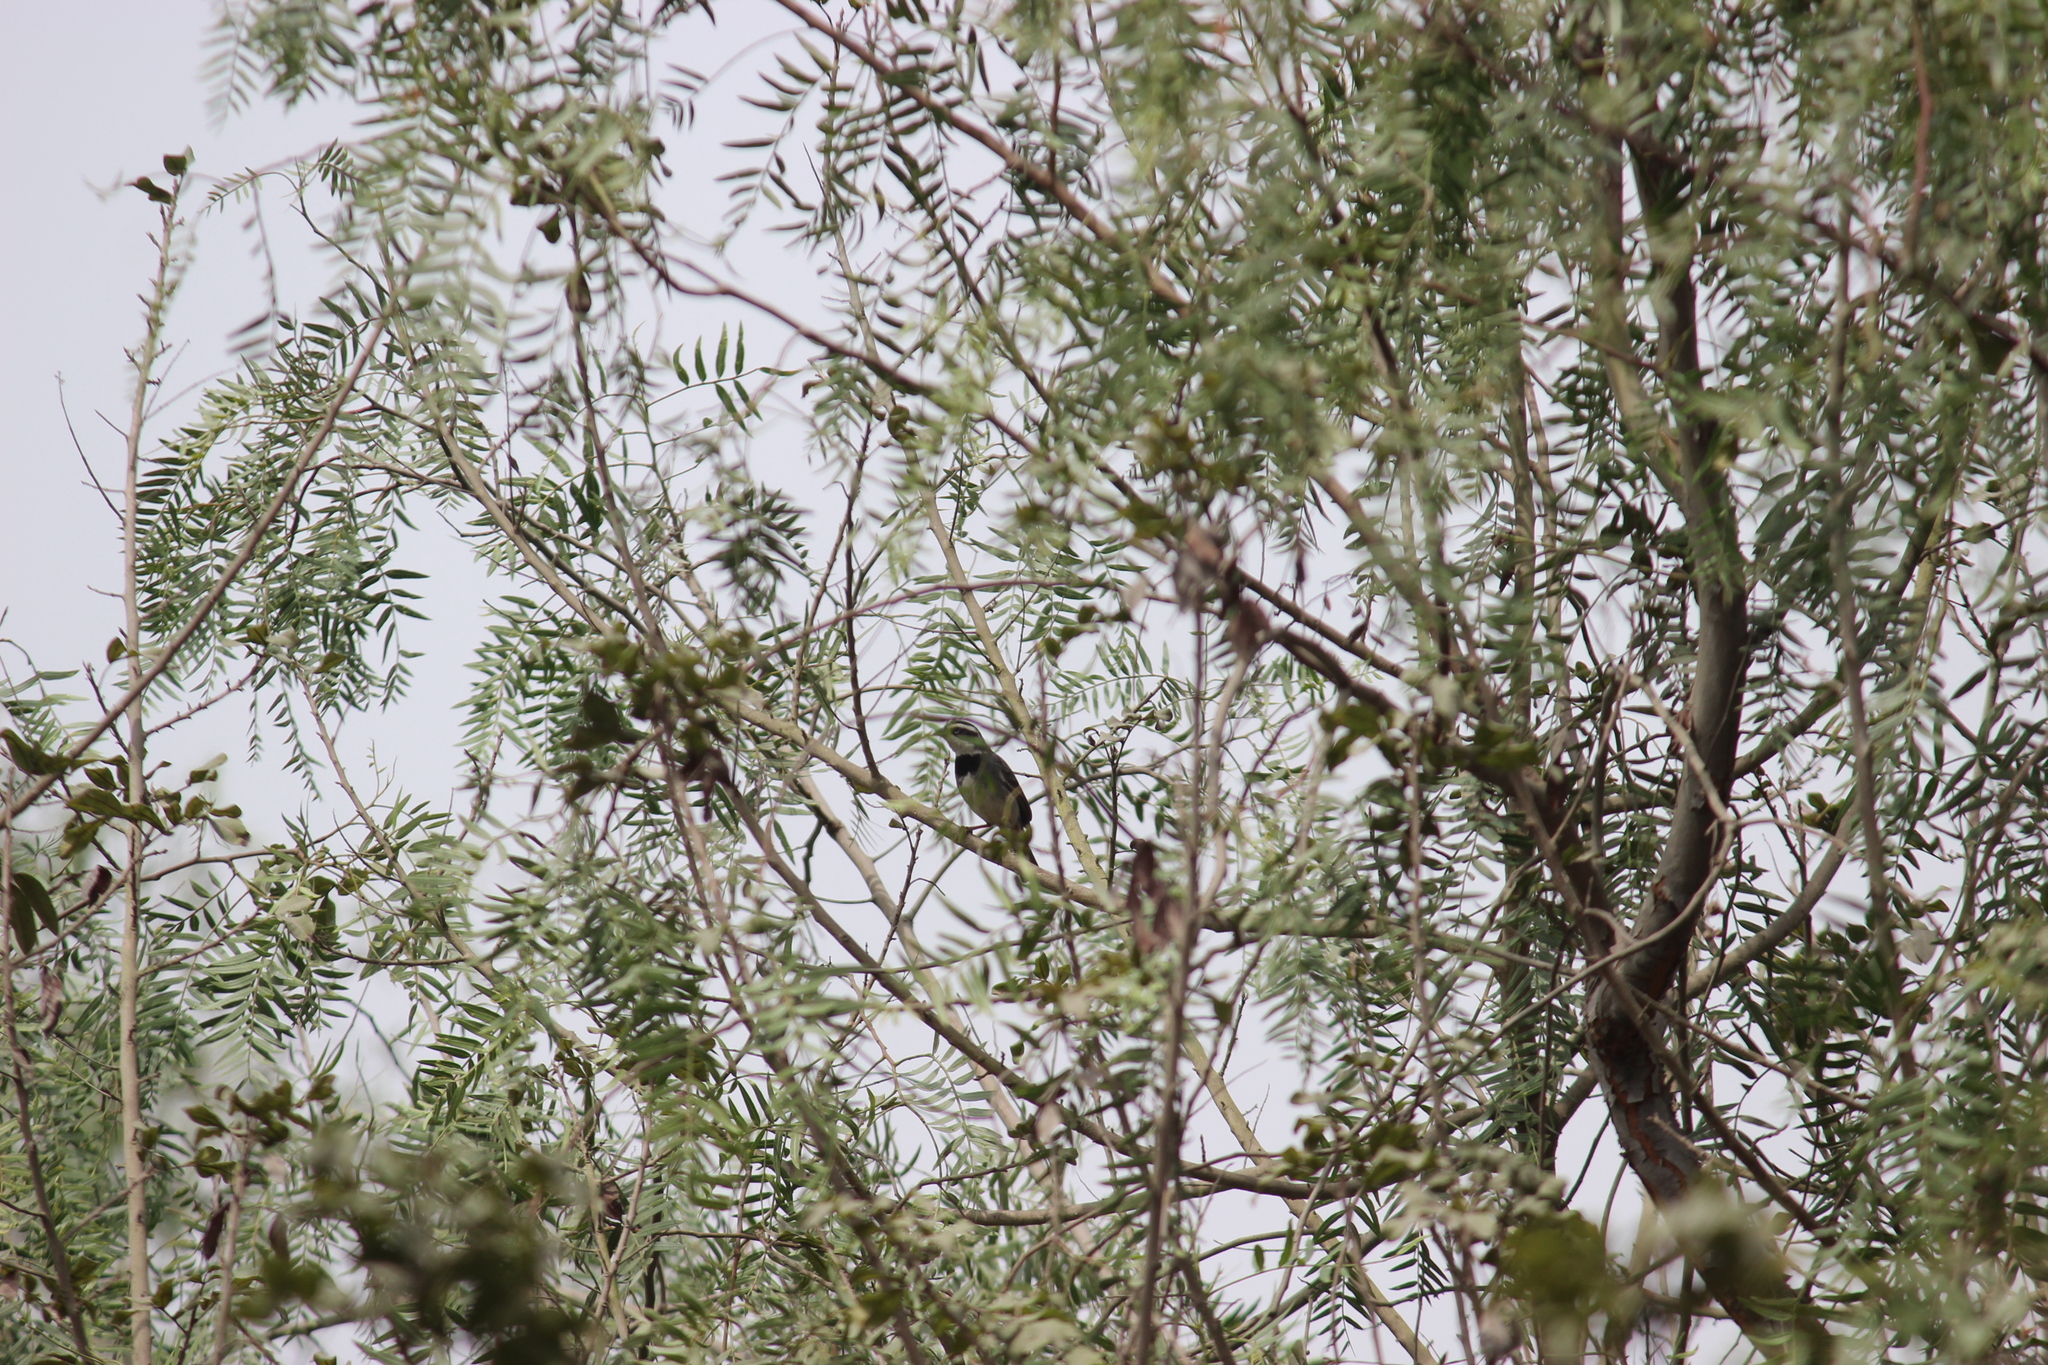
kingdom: Animalia
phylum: Chordata
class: Aves
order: Passeriformes
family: Thraupidae
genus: Catamenia
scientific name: Catamenia analis
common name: Band-tailed seedeater
